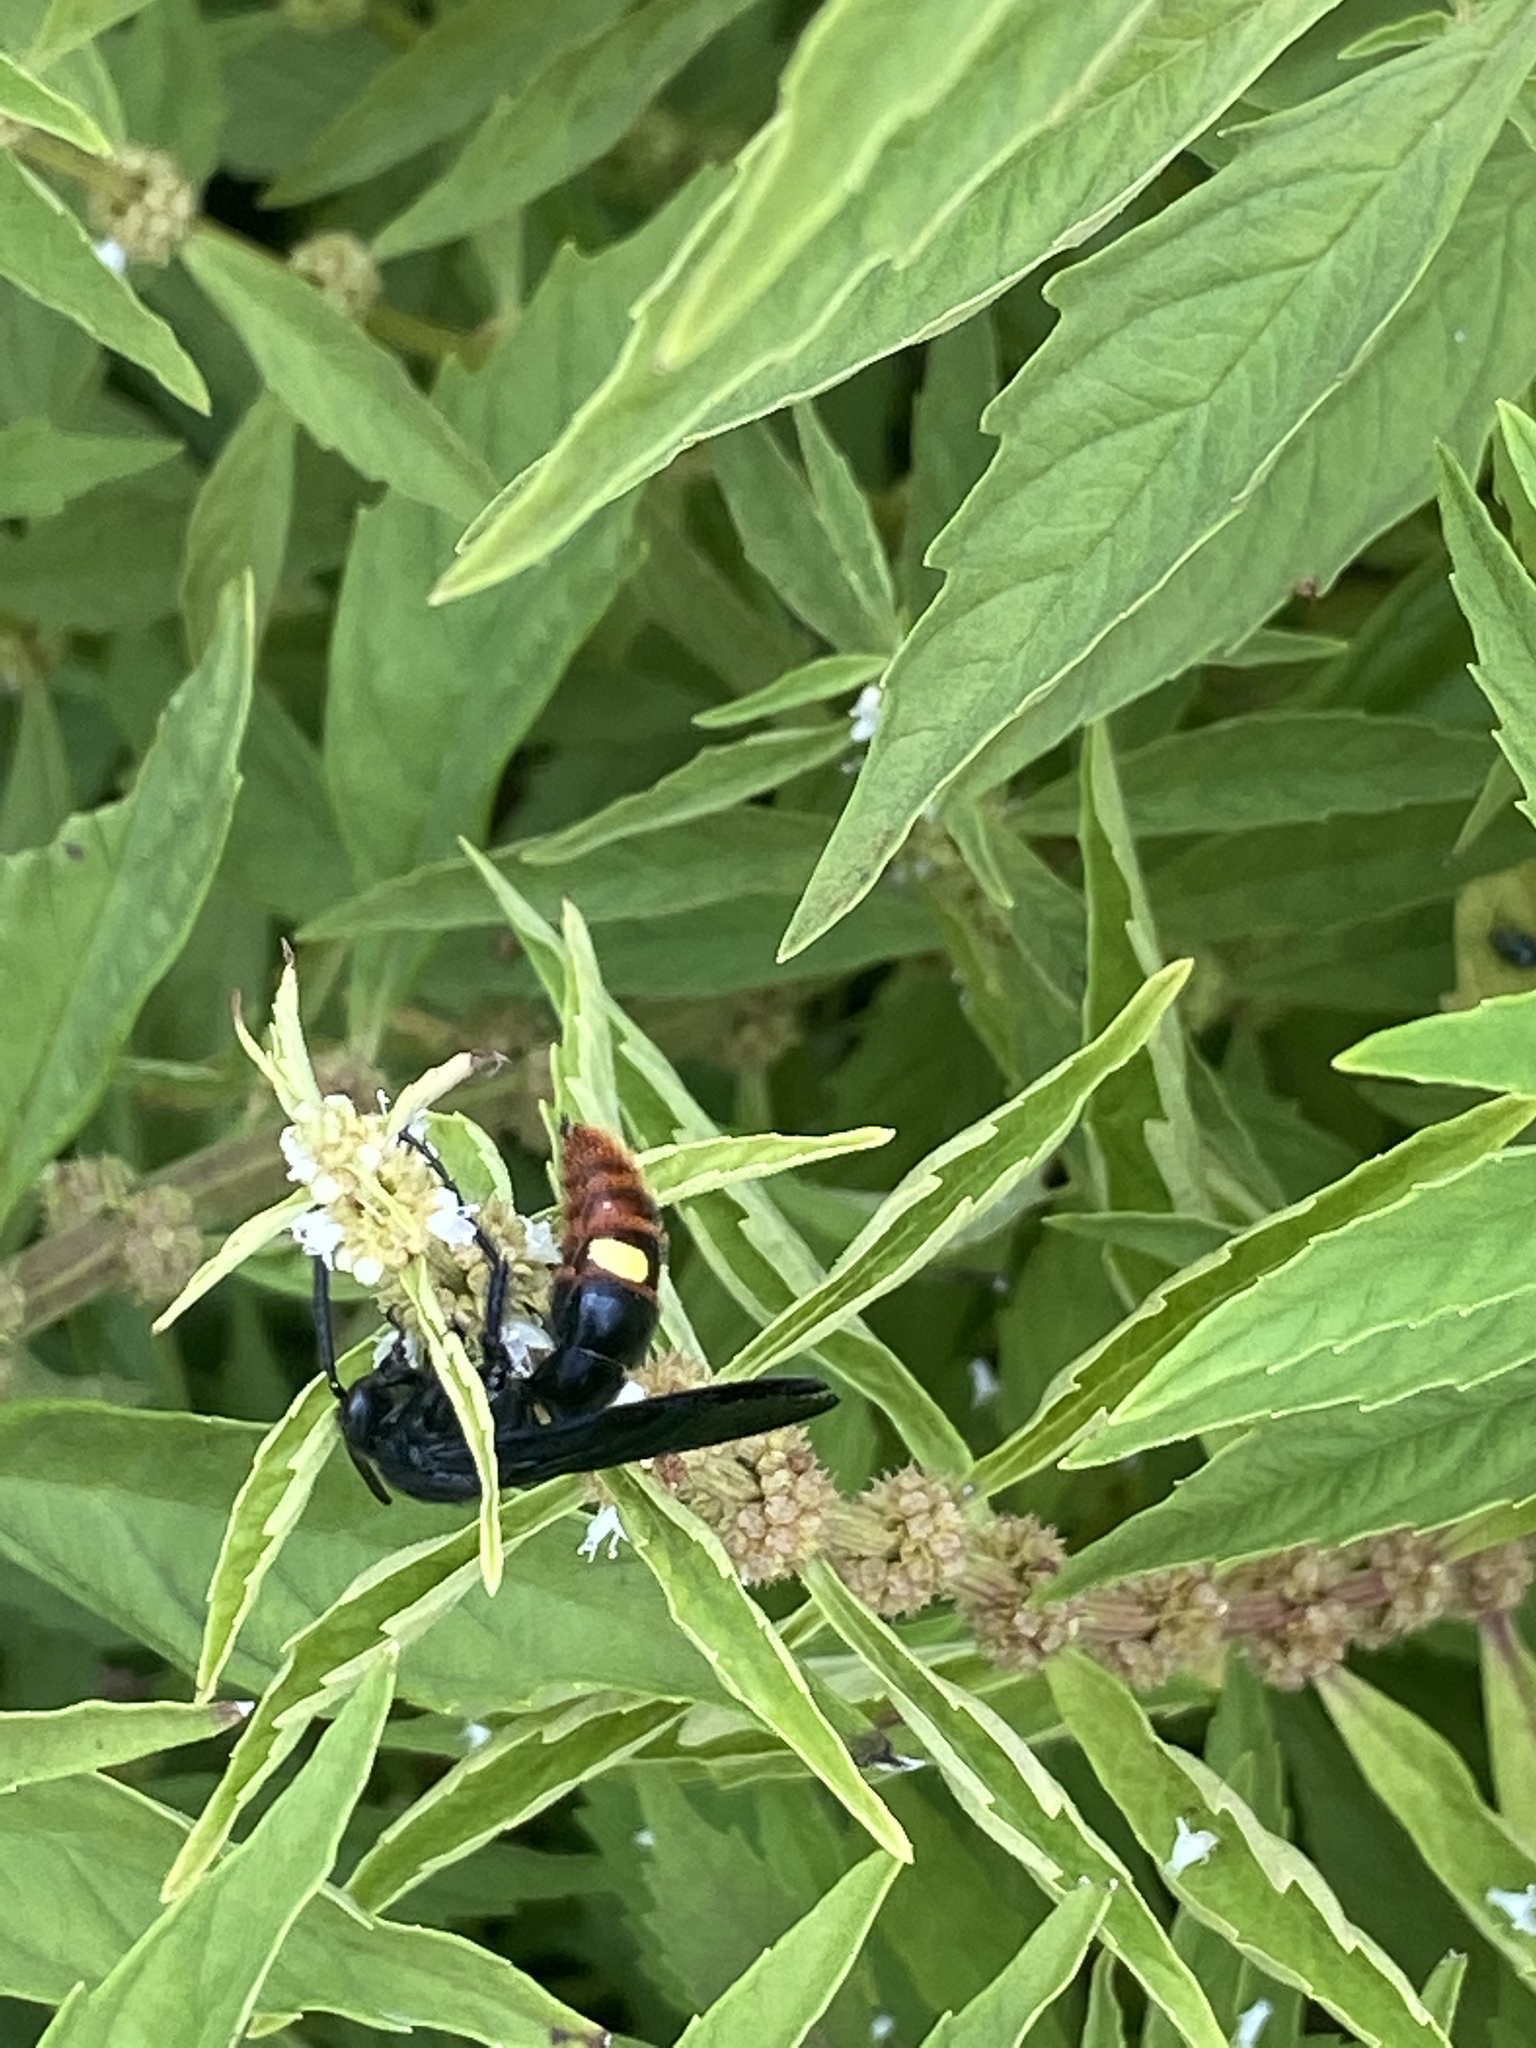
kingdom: Animalia
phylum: Arthropoda
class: Insecta
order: Hymenoptera
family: Scoliidae
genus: Scolia
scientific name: Scolia dubia
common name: Blue-winged scoliid wasp
